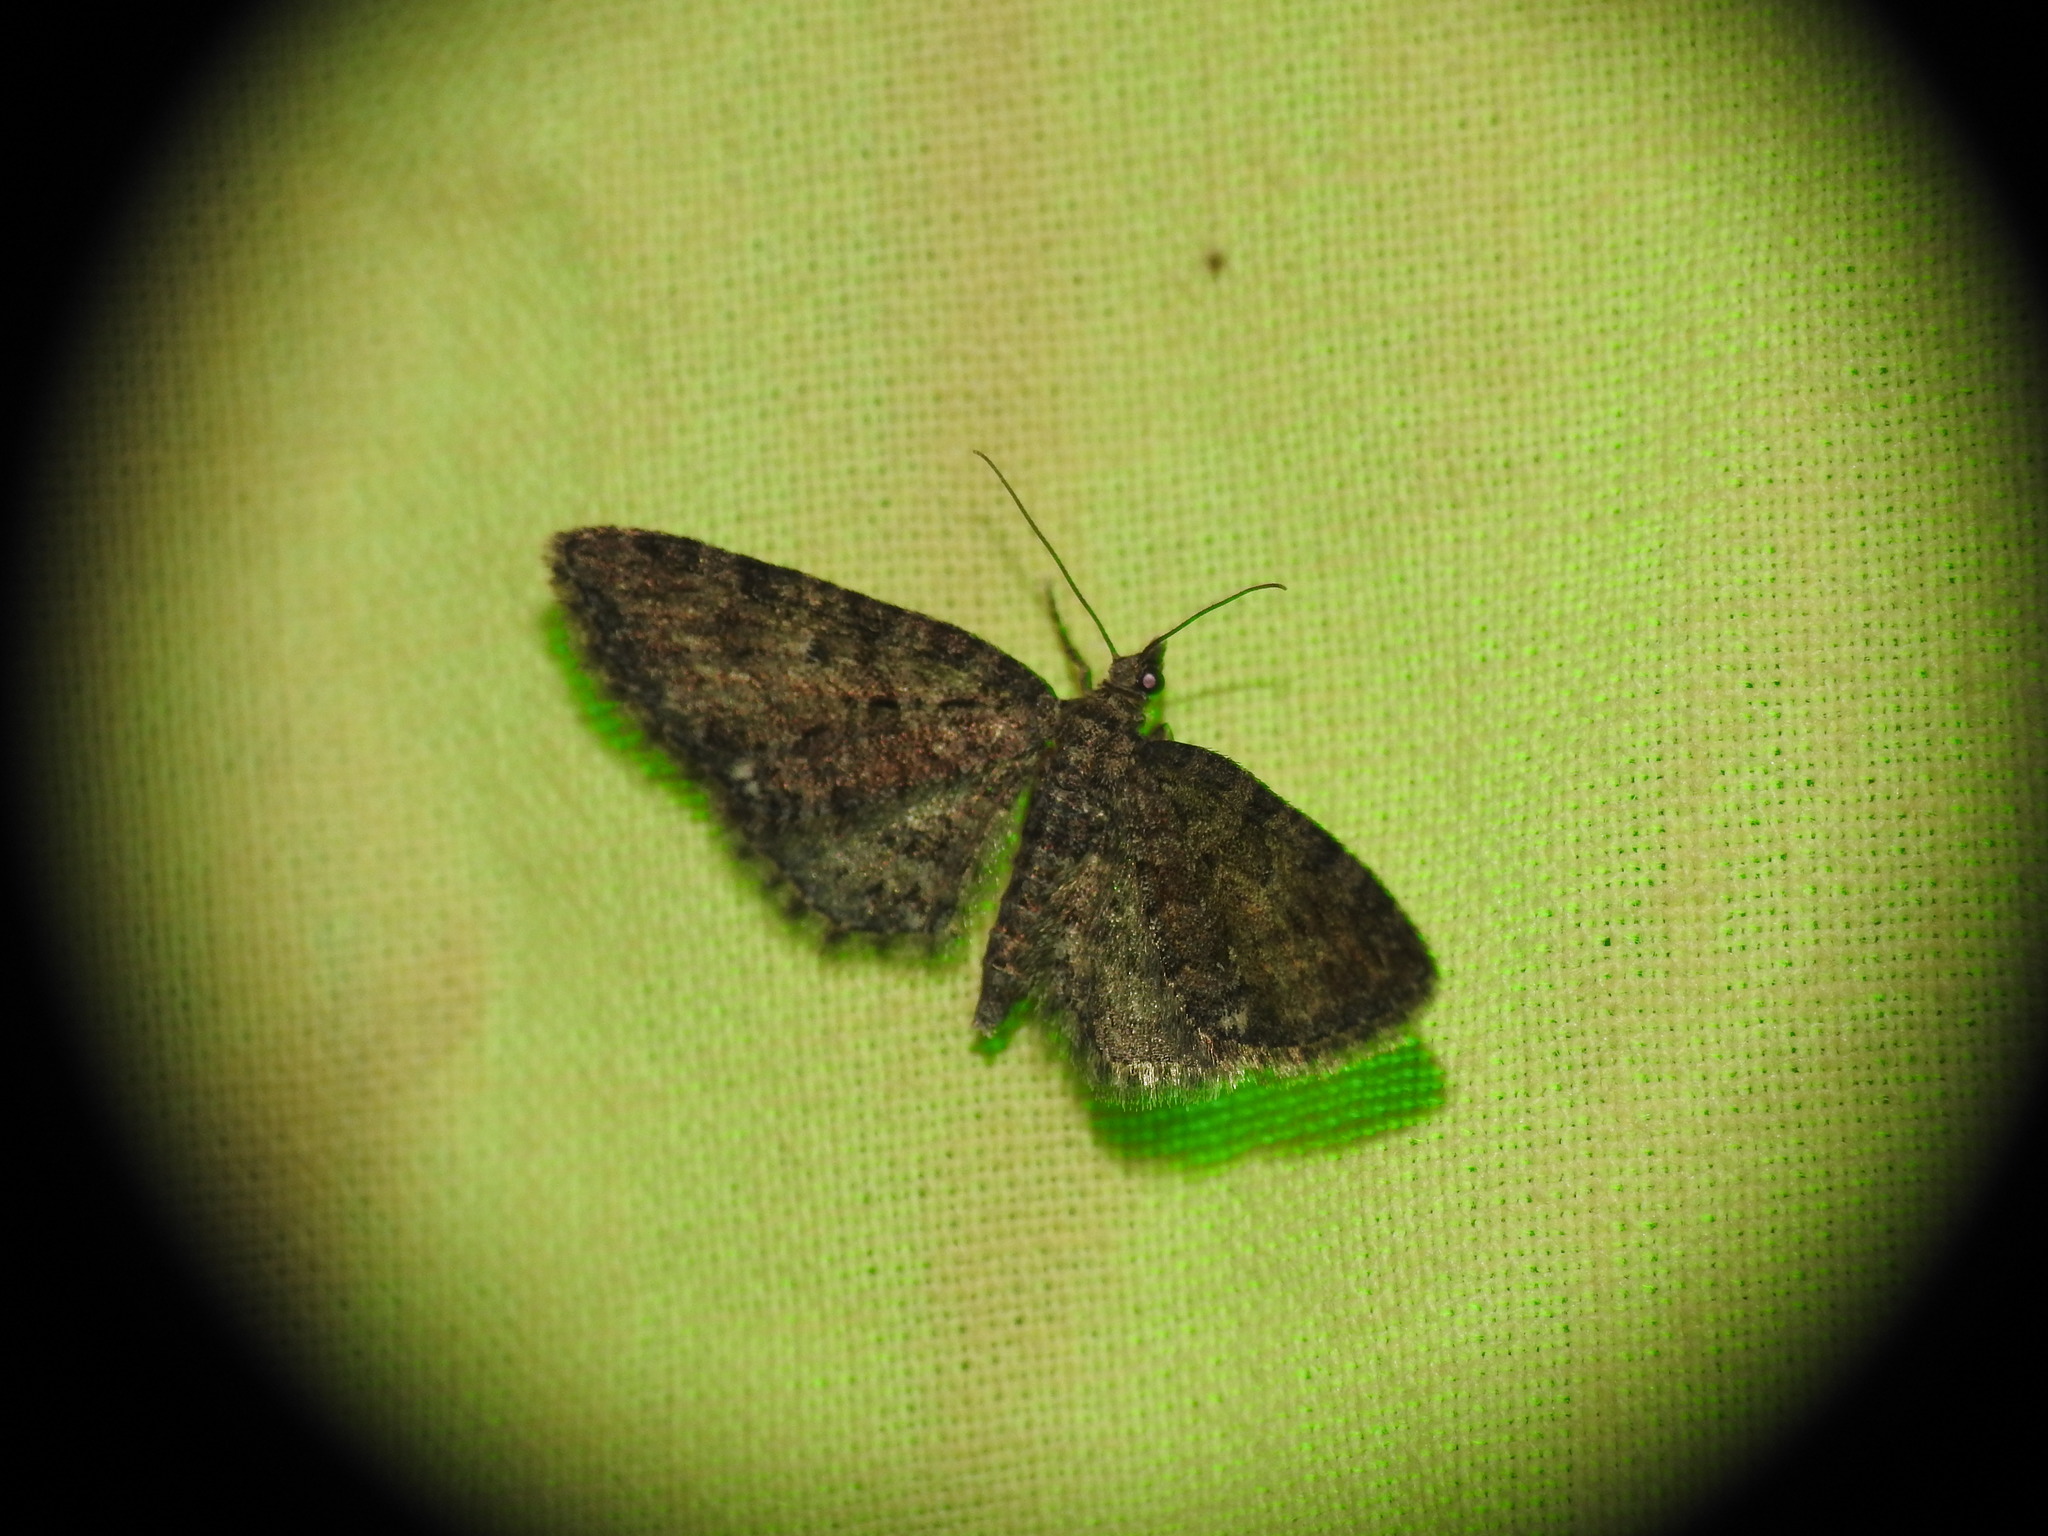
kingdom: Animalia
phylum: Arthropoda
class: Insecta
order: Lepidoptera
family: Geometridae
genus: Eupithecia
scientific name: Eupithecia abbreviata
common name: Brindled pug
